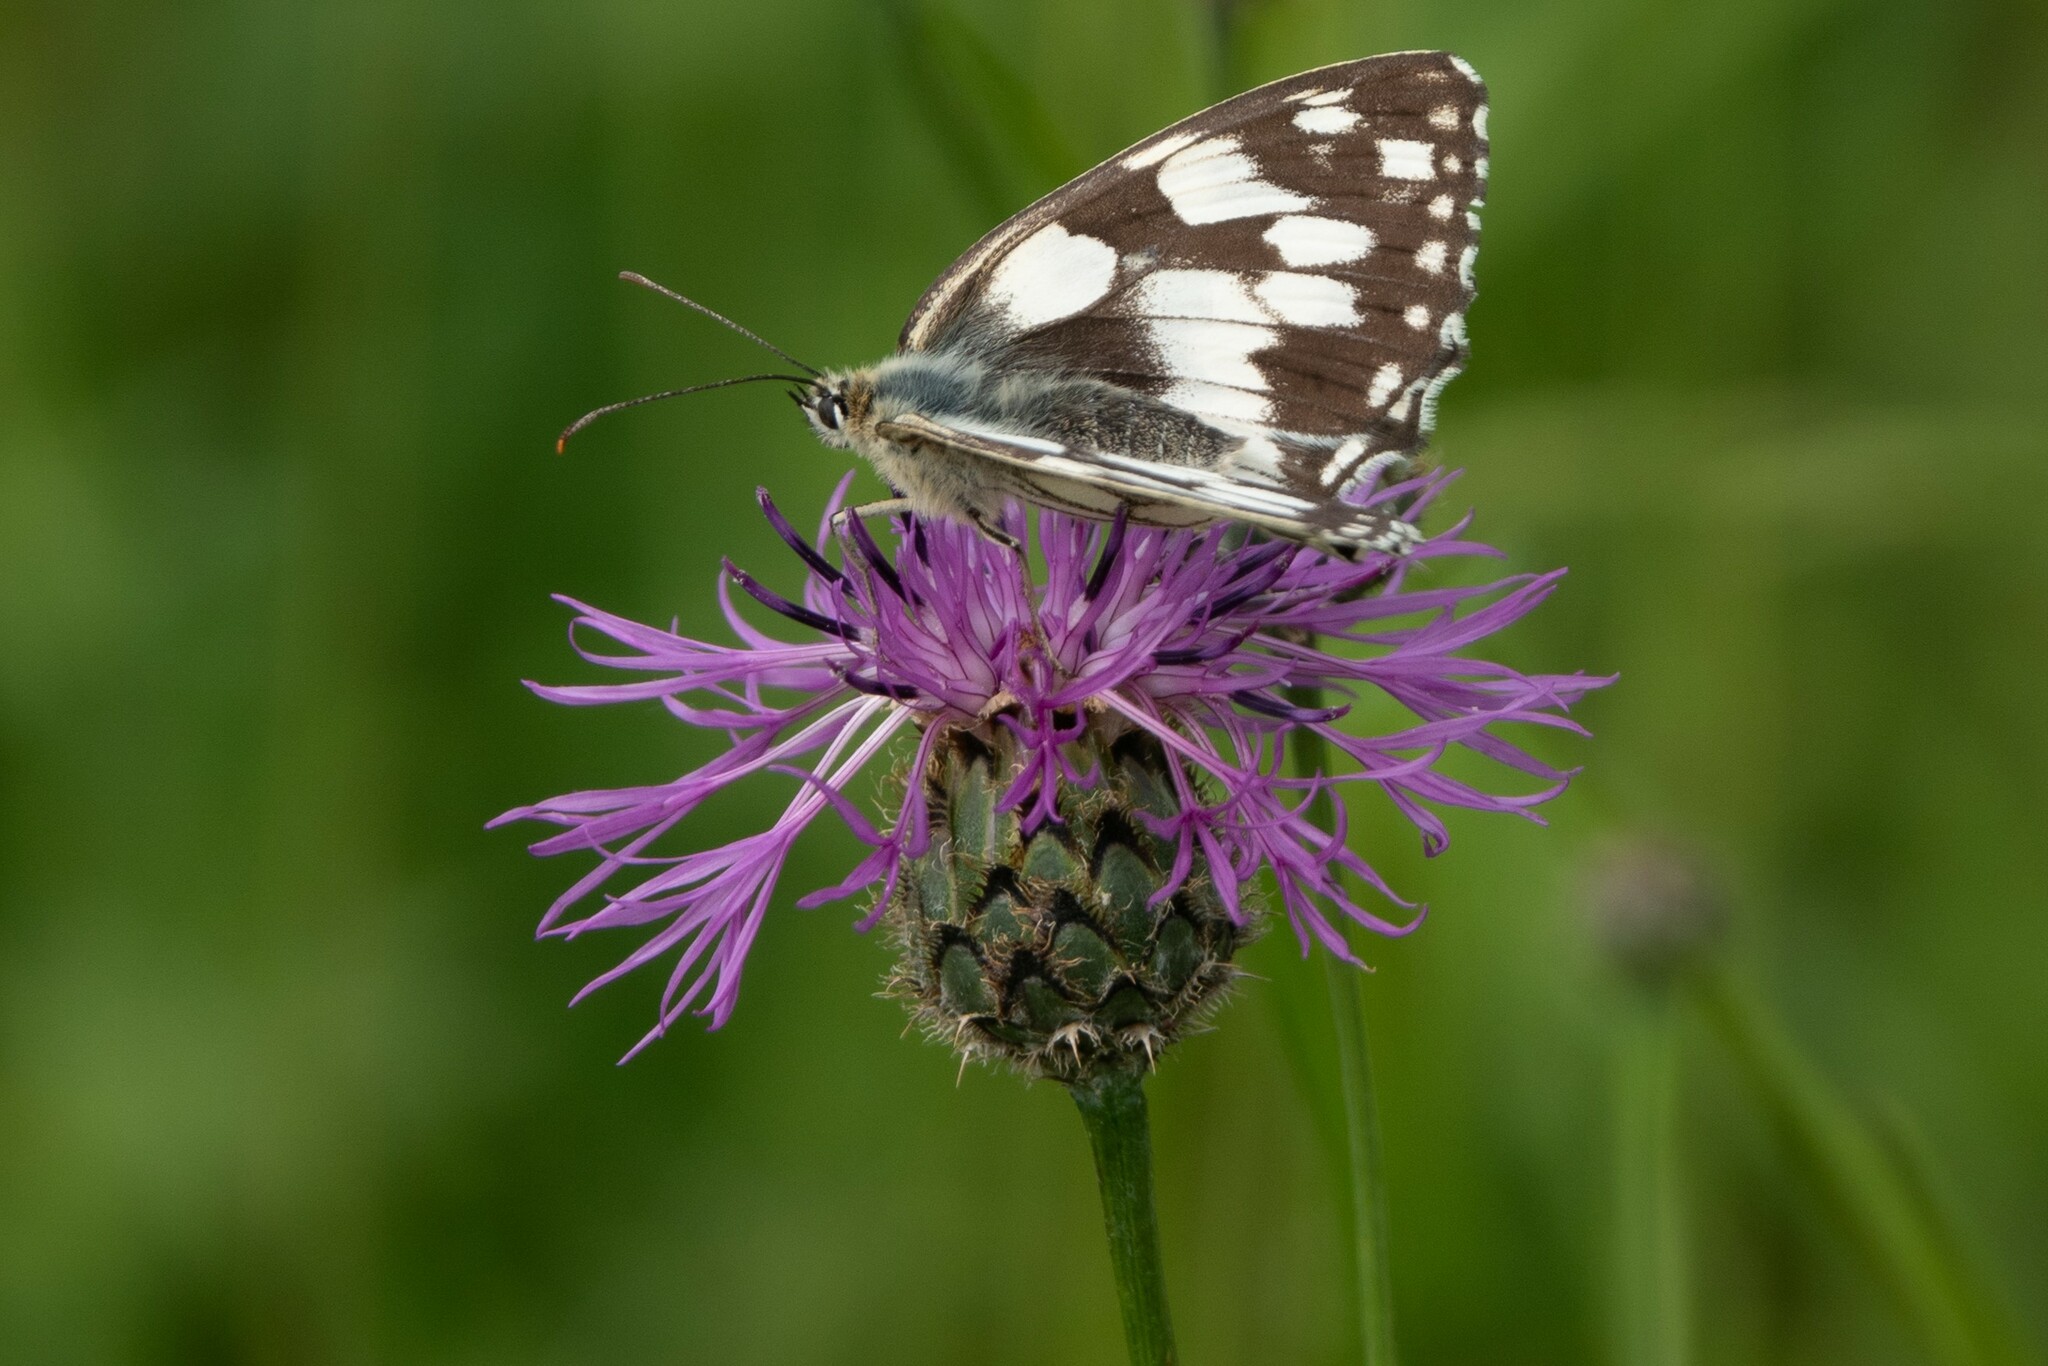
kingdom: Plantae
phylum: Tracheophyta
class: Magnoliopsida
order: Asterales
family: Asteraceae
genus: Centaurea
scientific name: Centaurea scabiosa
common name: Greater knapweed
